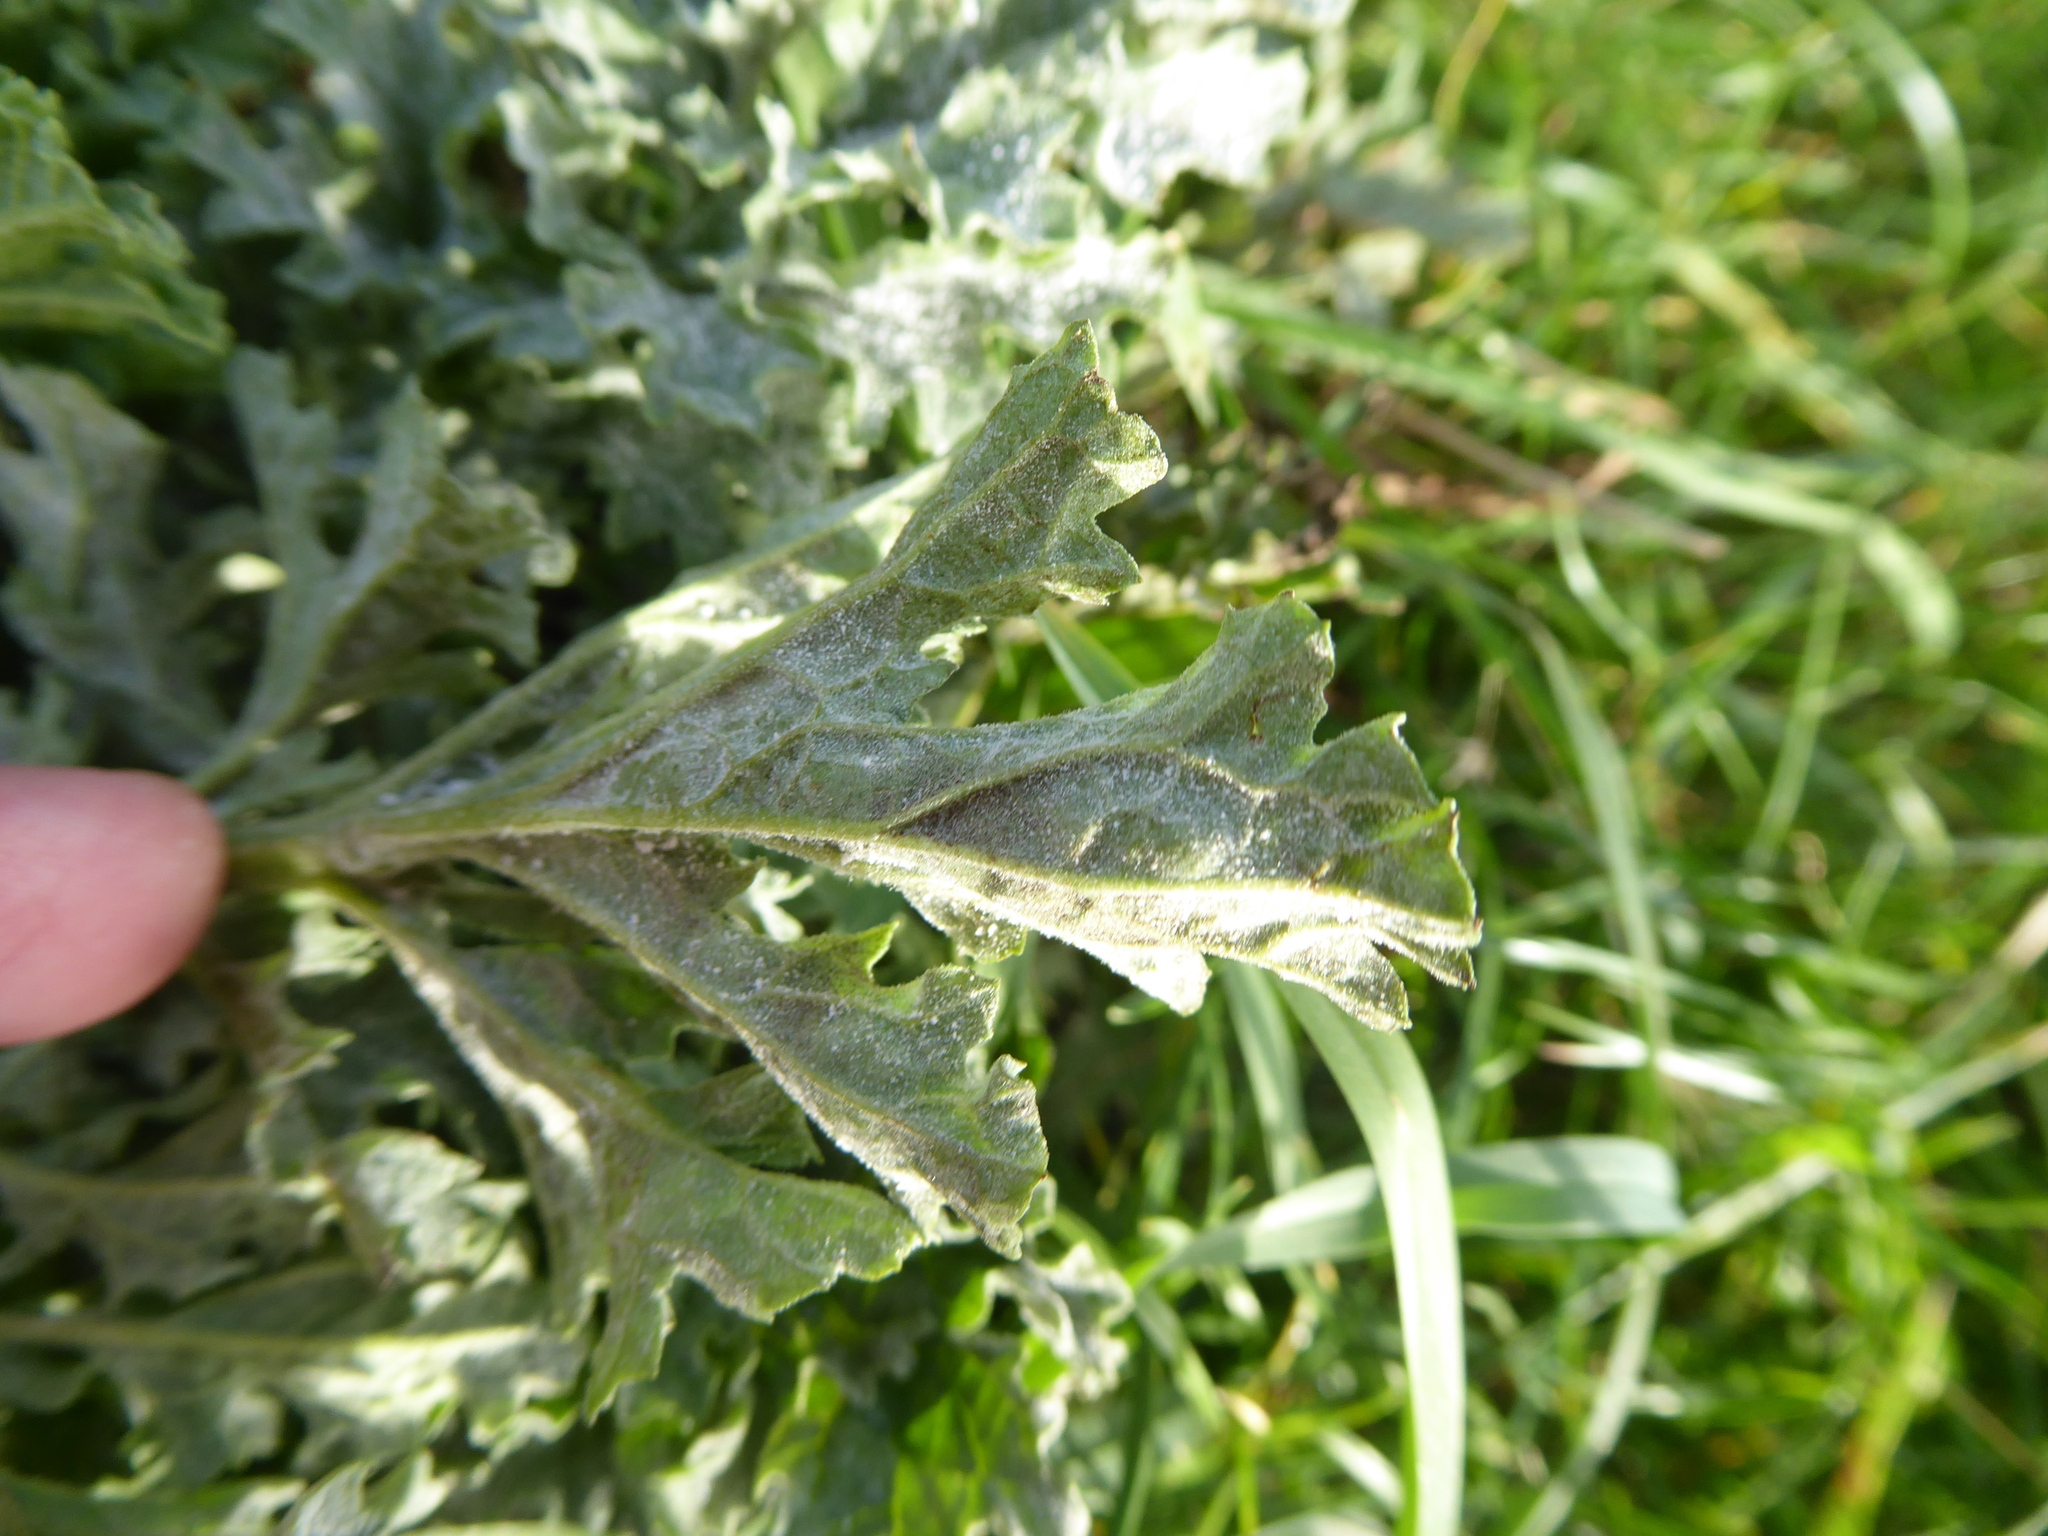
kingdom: Plantae
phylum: Tracheophyta
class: Magnoliopsida
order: Asterales
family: Asteraceae
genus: Jacobaea
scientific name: Jacobaea vulgaris
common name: Stinking willie
